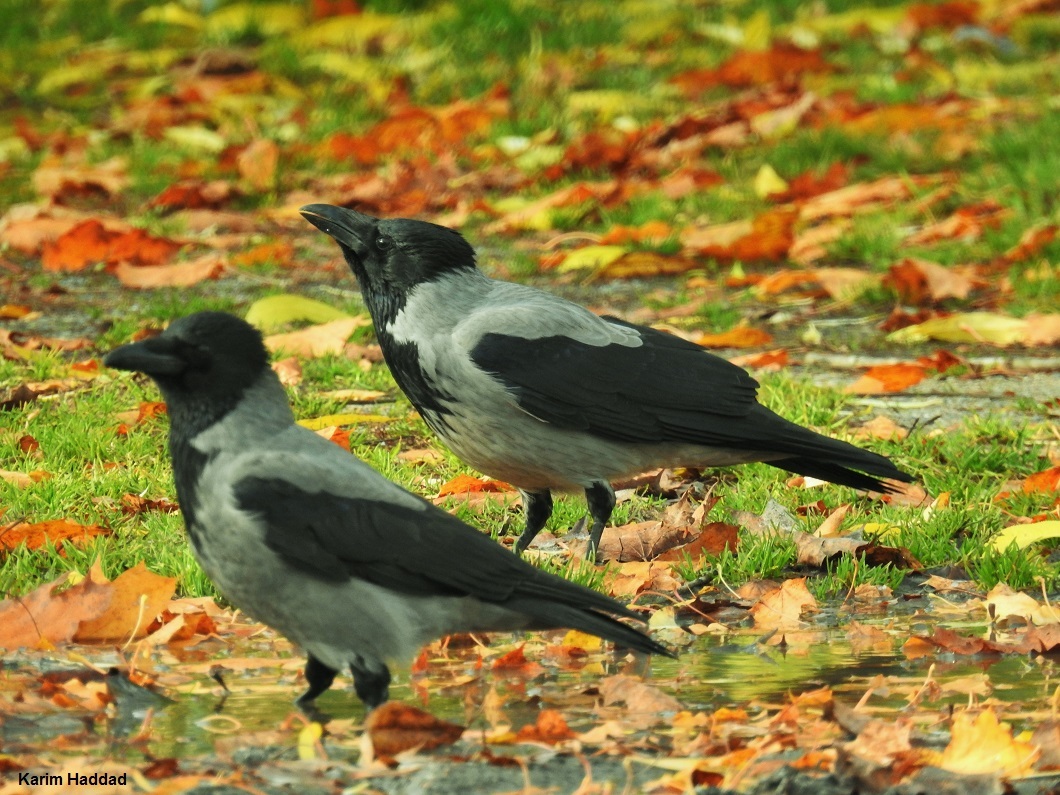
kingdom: Animalia
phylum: Chordata
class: Aves
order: Passeriformes
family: Corvidae
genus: Corvus
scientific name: Corvus cornix
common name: Hooded crow
